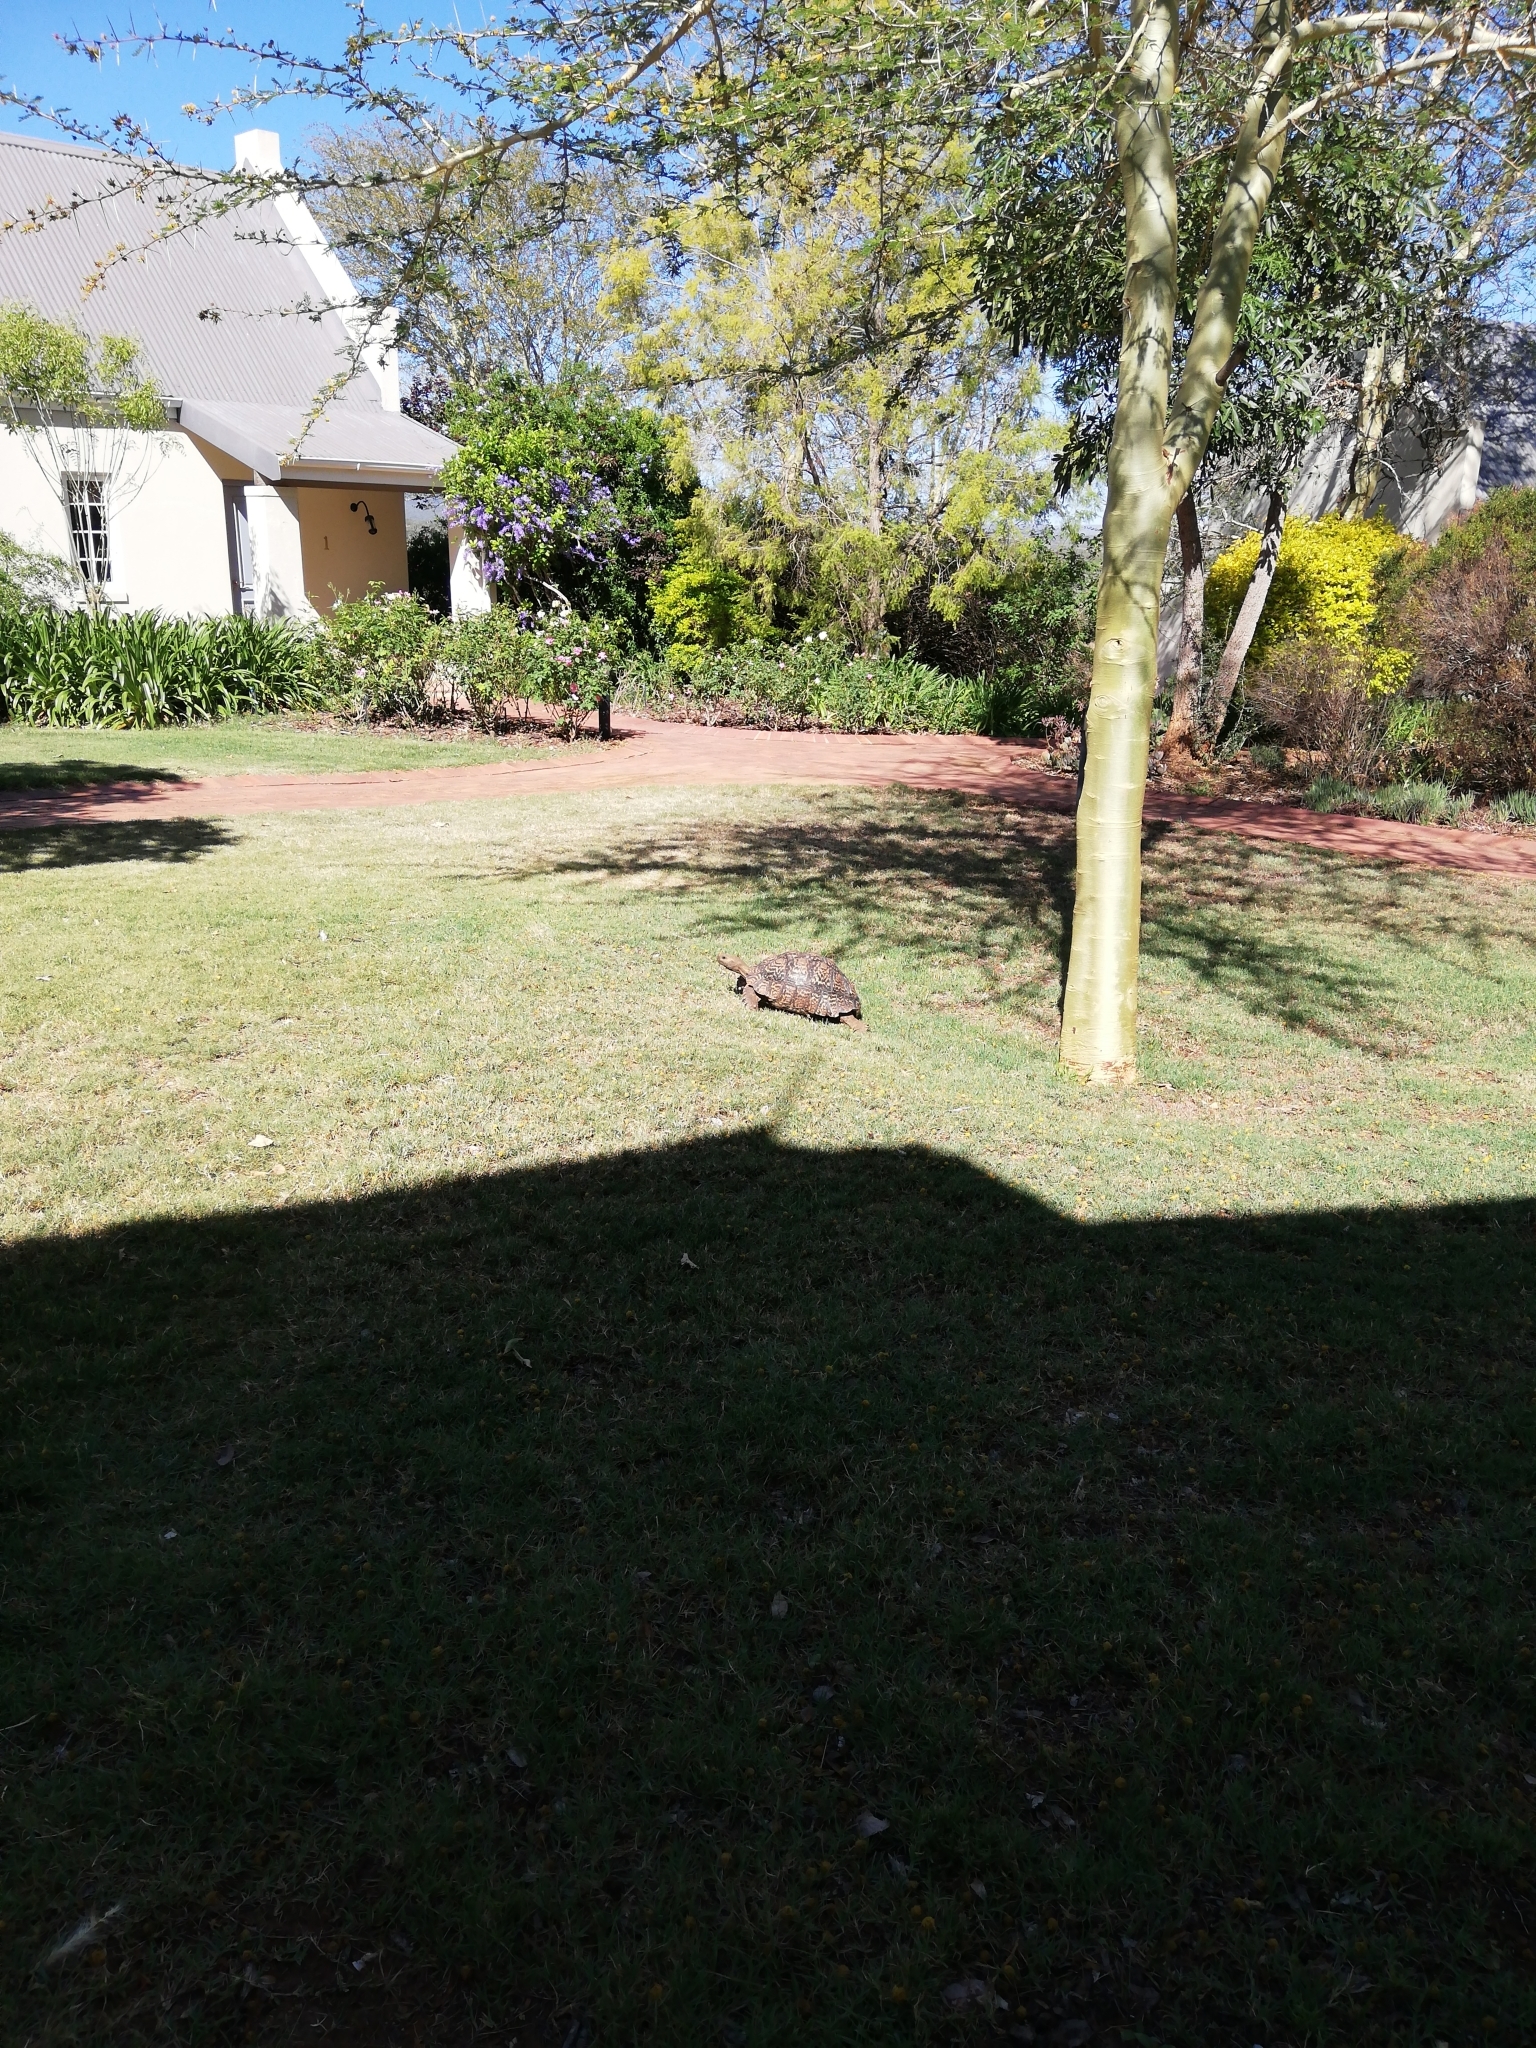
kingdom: Animalia
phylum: Chordata
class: Testudines
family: Testudinidae
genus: Stigmochelys
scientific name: Stigmochelys pardalis
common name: Leopard tortoise
